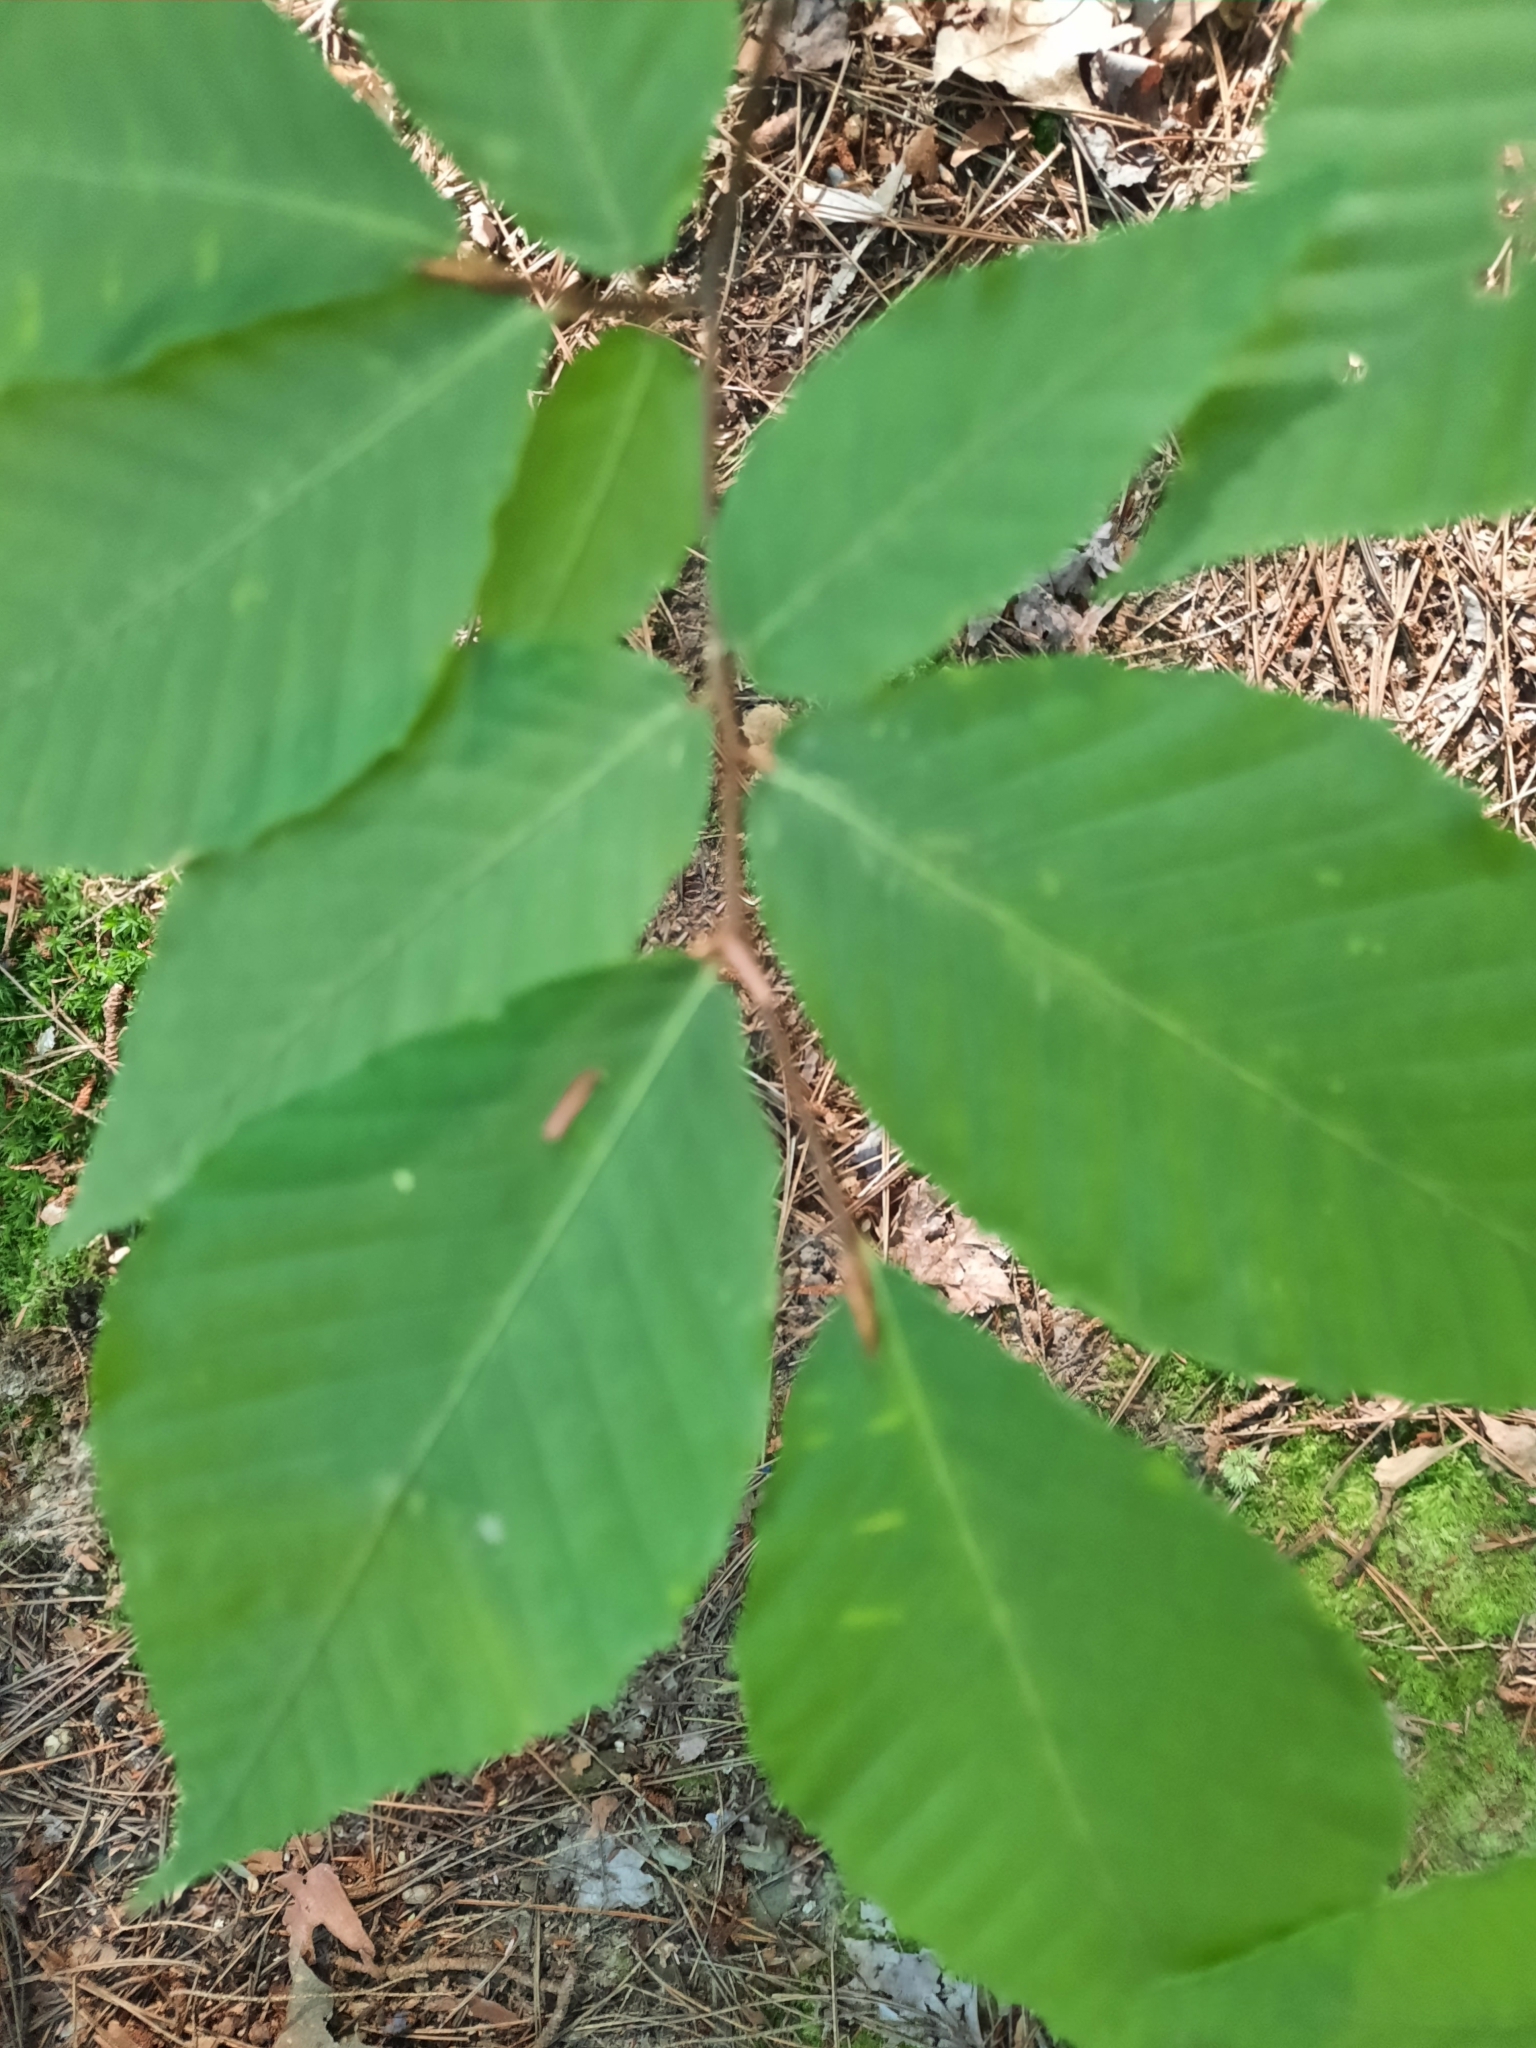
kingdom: Plantae
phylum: Tracheophyta
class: Magnoliopsida
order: Fagales
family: Fagaceae
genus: Fagus
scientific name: Fagus grandifolia
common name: American beech
